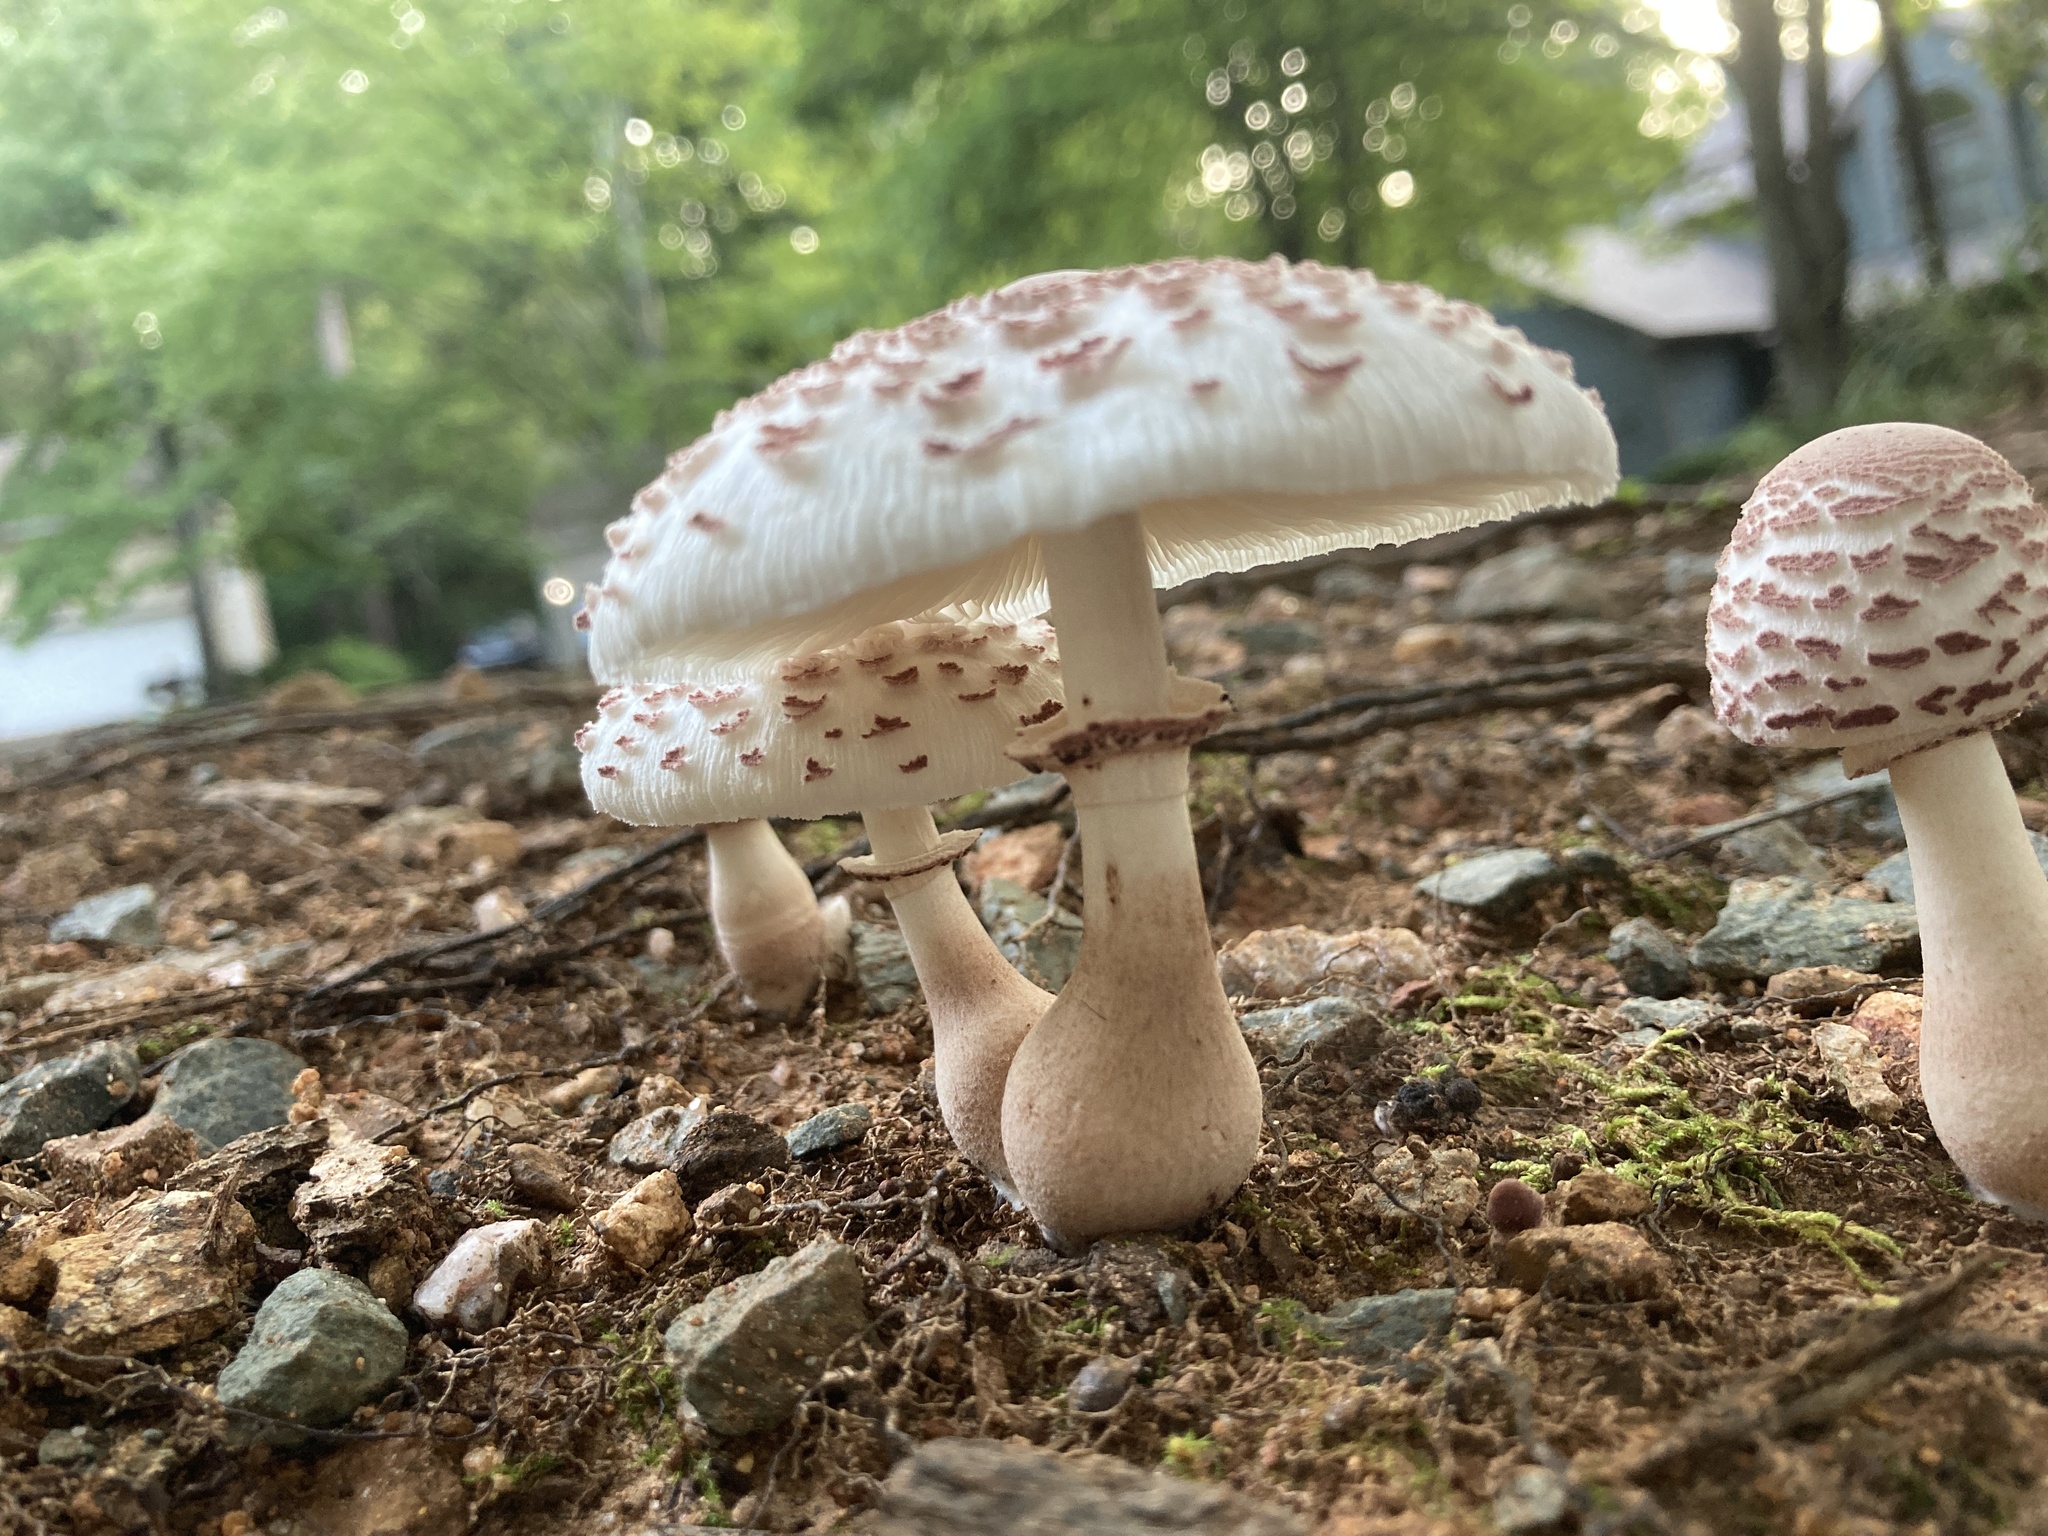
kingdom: Fungi
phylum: Basidiomycota
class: Agaricomycetes
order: Agaricales
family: Agaricaceae
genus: Leucoagaricus
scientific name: Leucoagaricus americanus
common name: Reddening lepiota
